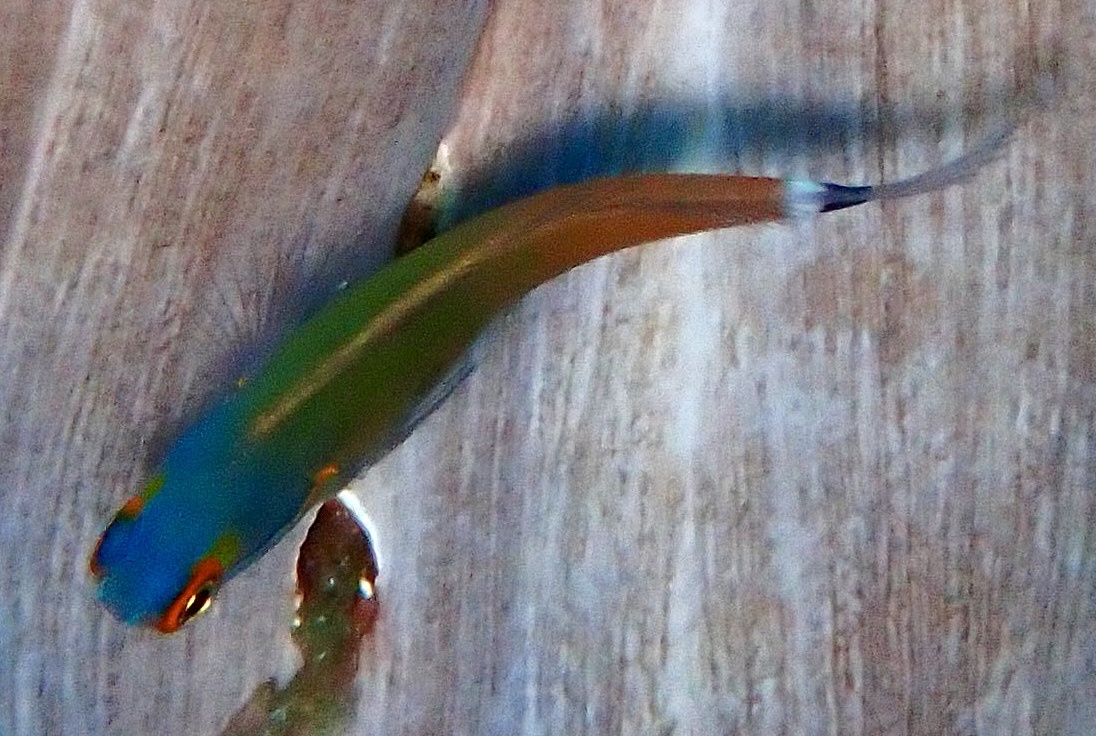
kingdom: Animalia
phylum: Chordata
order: Perciformes
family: Blenniidae
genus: Ecsenius
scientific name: Ecsenius stigmatura
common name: Tail-spot combtooth-blenny
